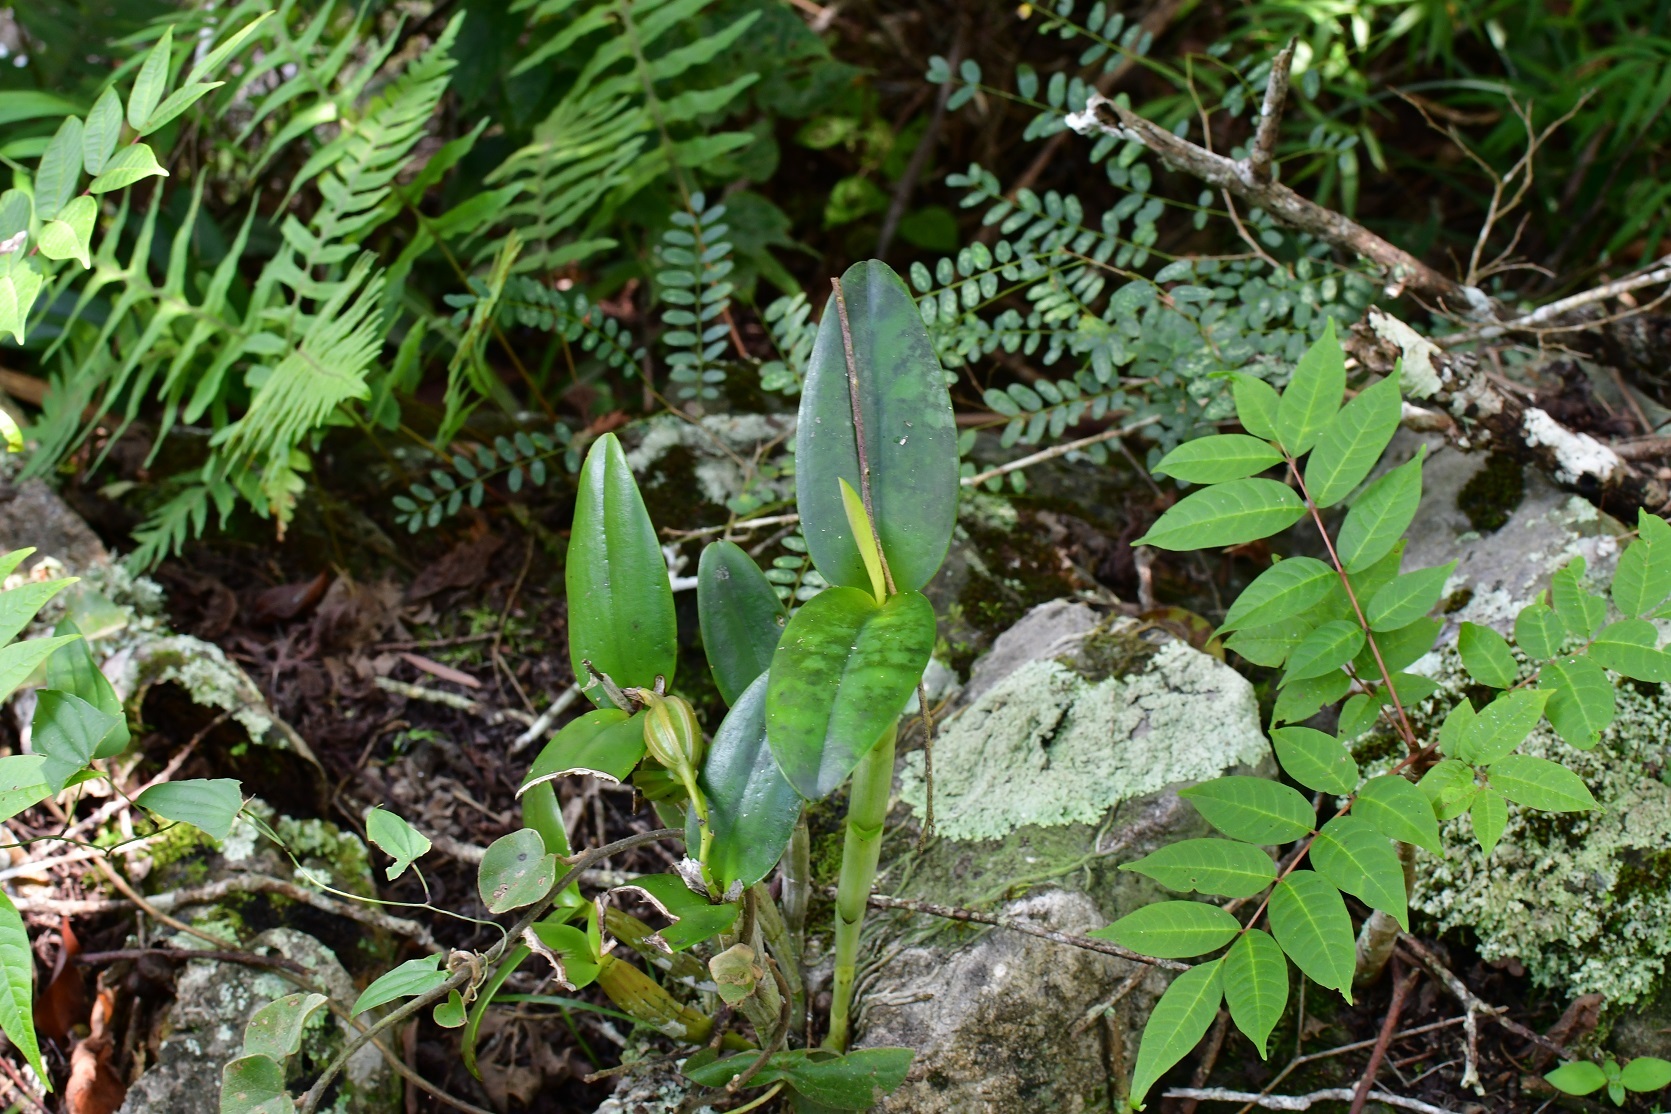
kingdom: Plantae
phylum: Tracheophyta
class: Liliopsida
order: Asparagales
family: Orchidaceae
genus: Guarianthe
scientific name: Guarianthe aurantiaca
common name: Orange cattleya
